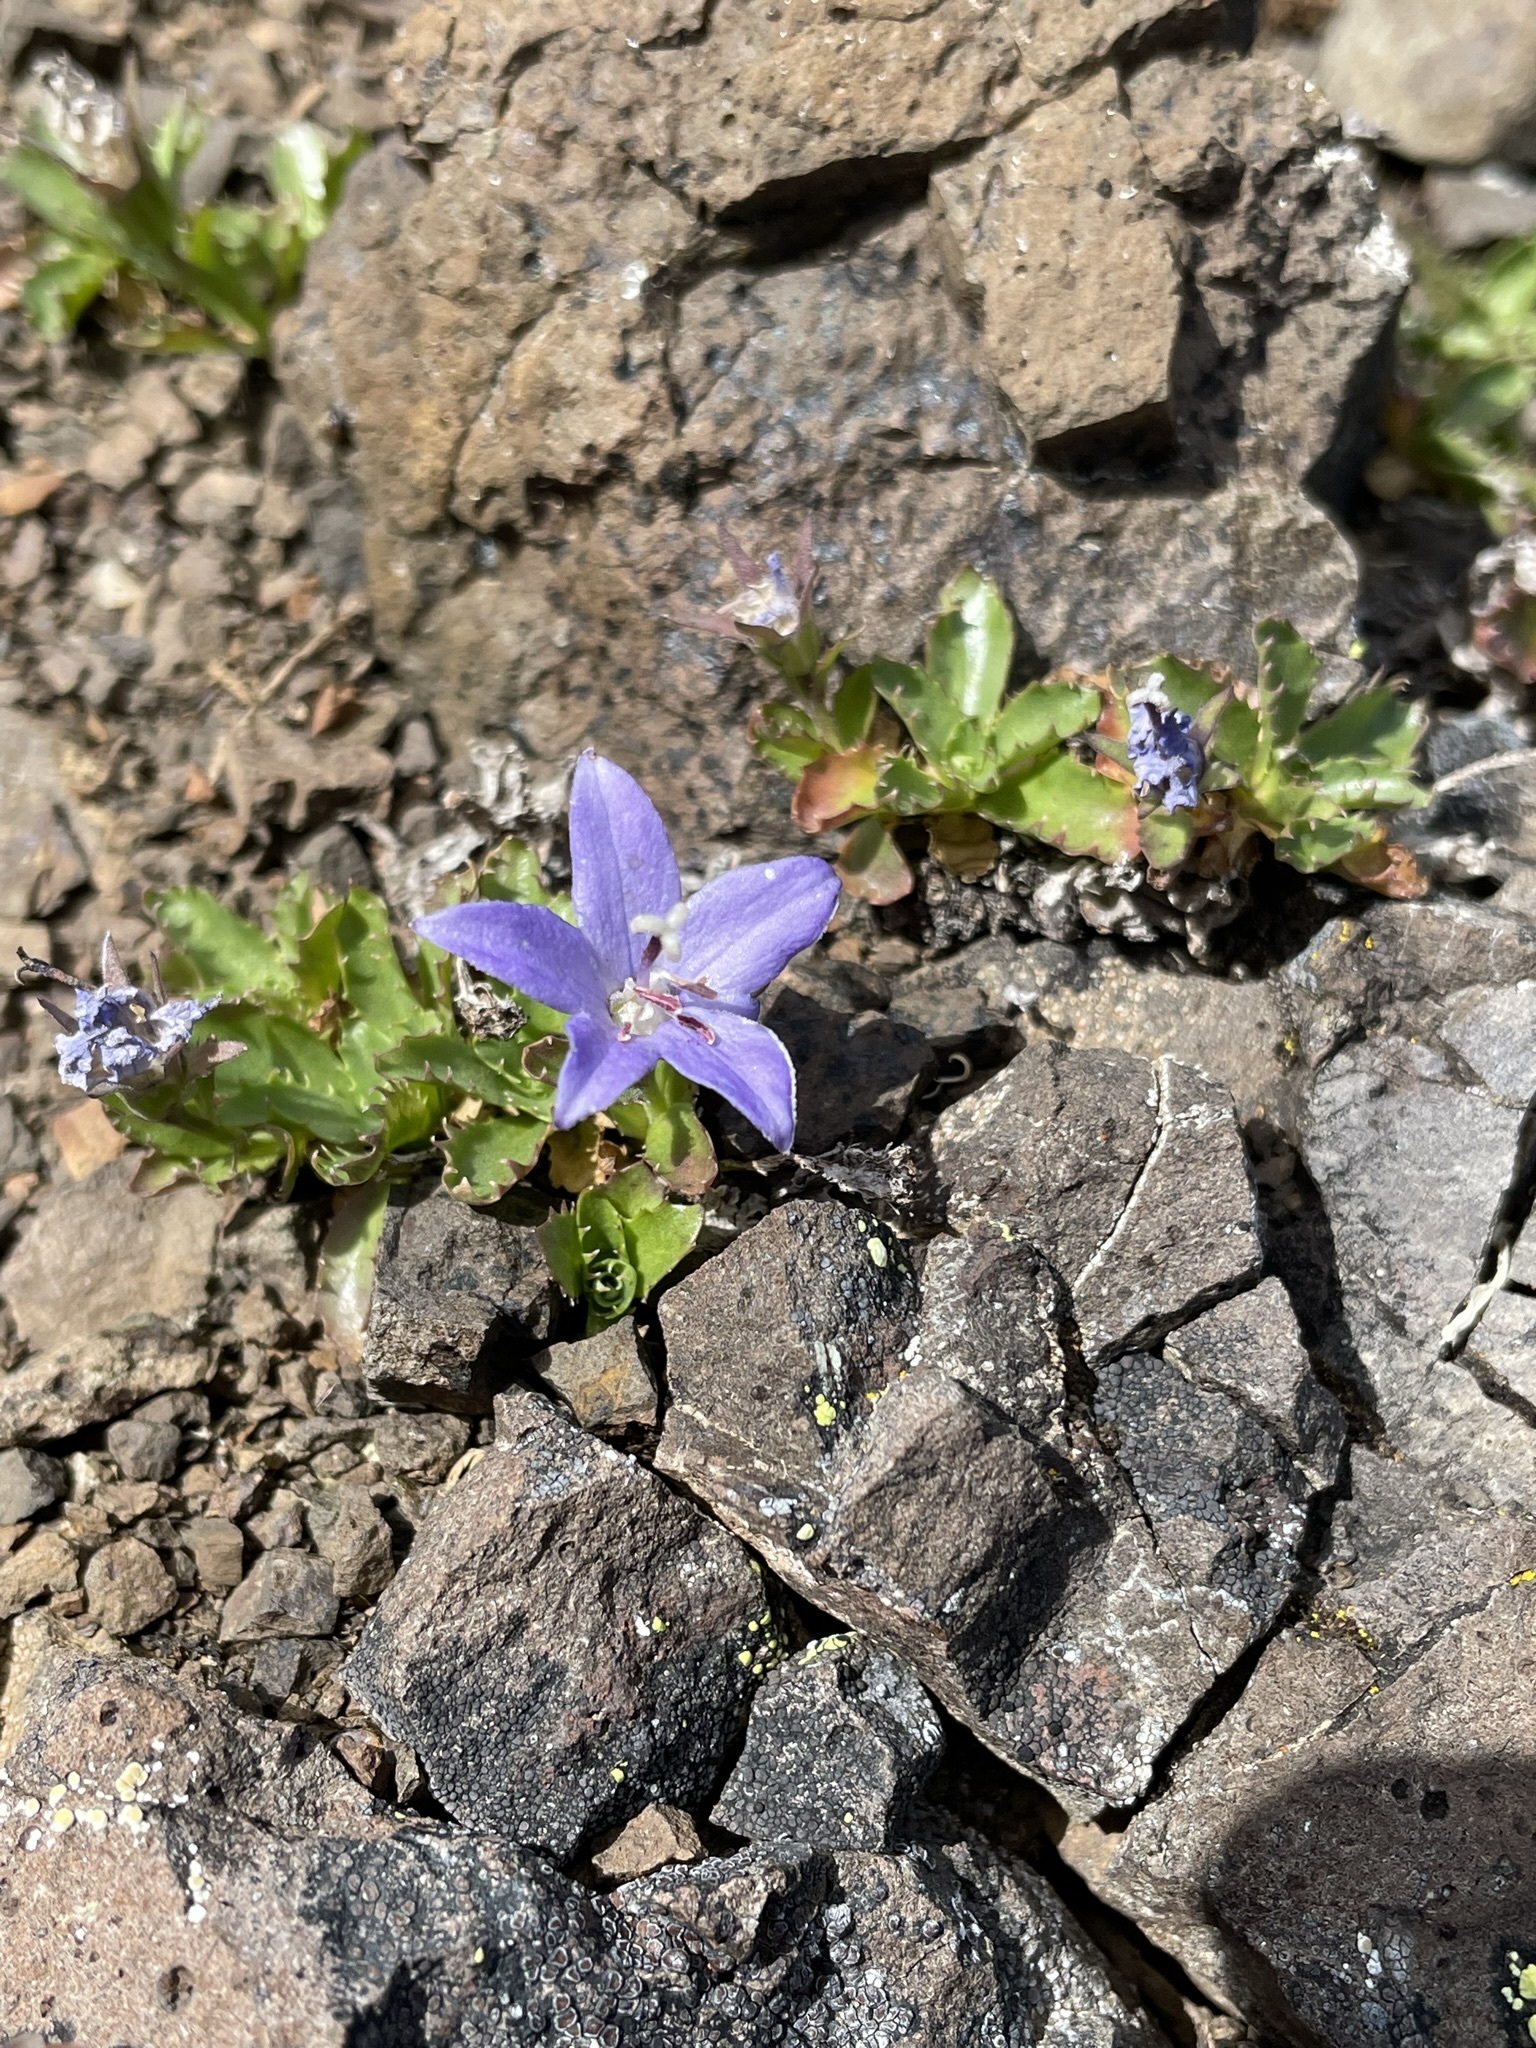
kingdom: Plantae
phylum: Tracheophyta
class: Magnoliopsida
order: Asterales
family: Campanulaceae
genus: Campanula
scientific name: Campanula piperi
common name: Olympic bellflower
